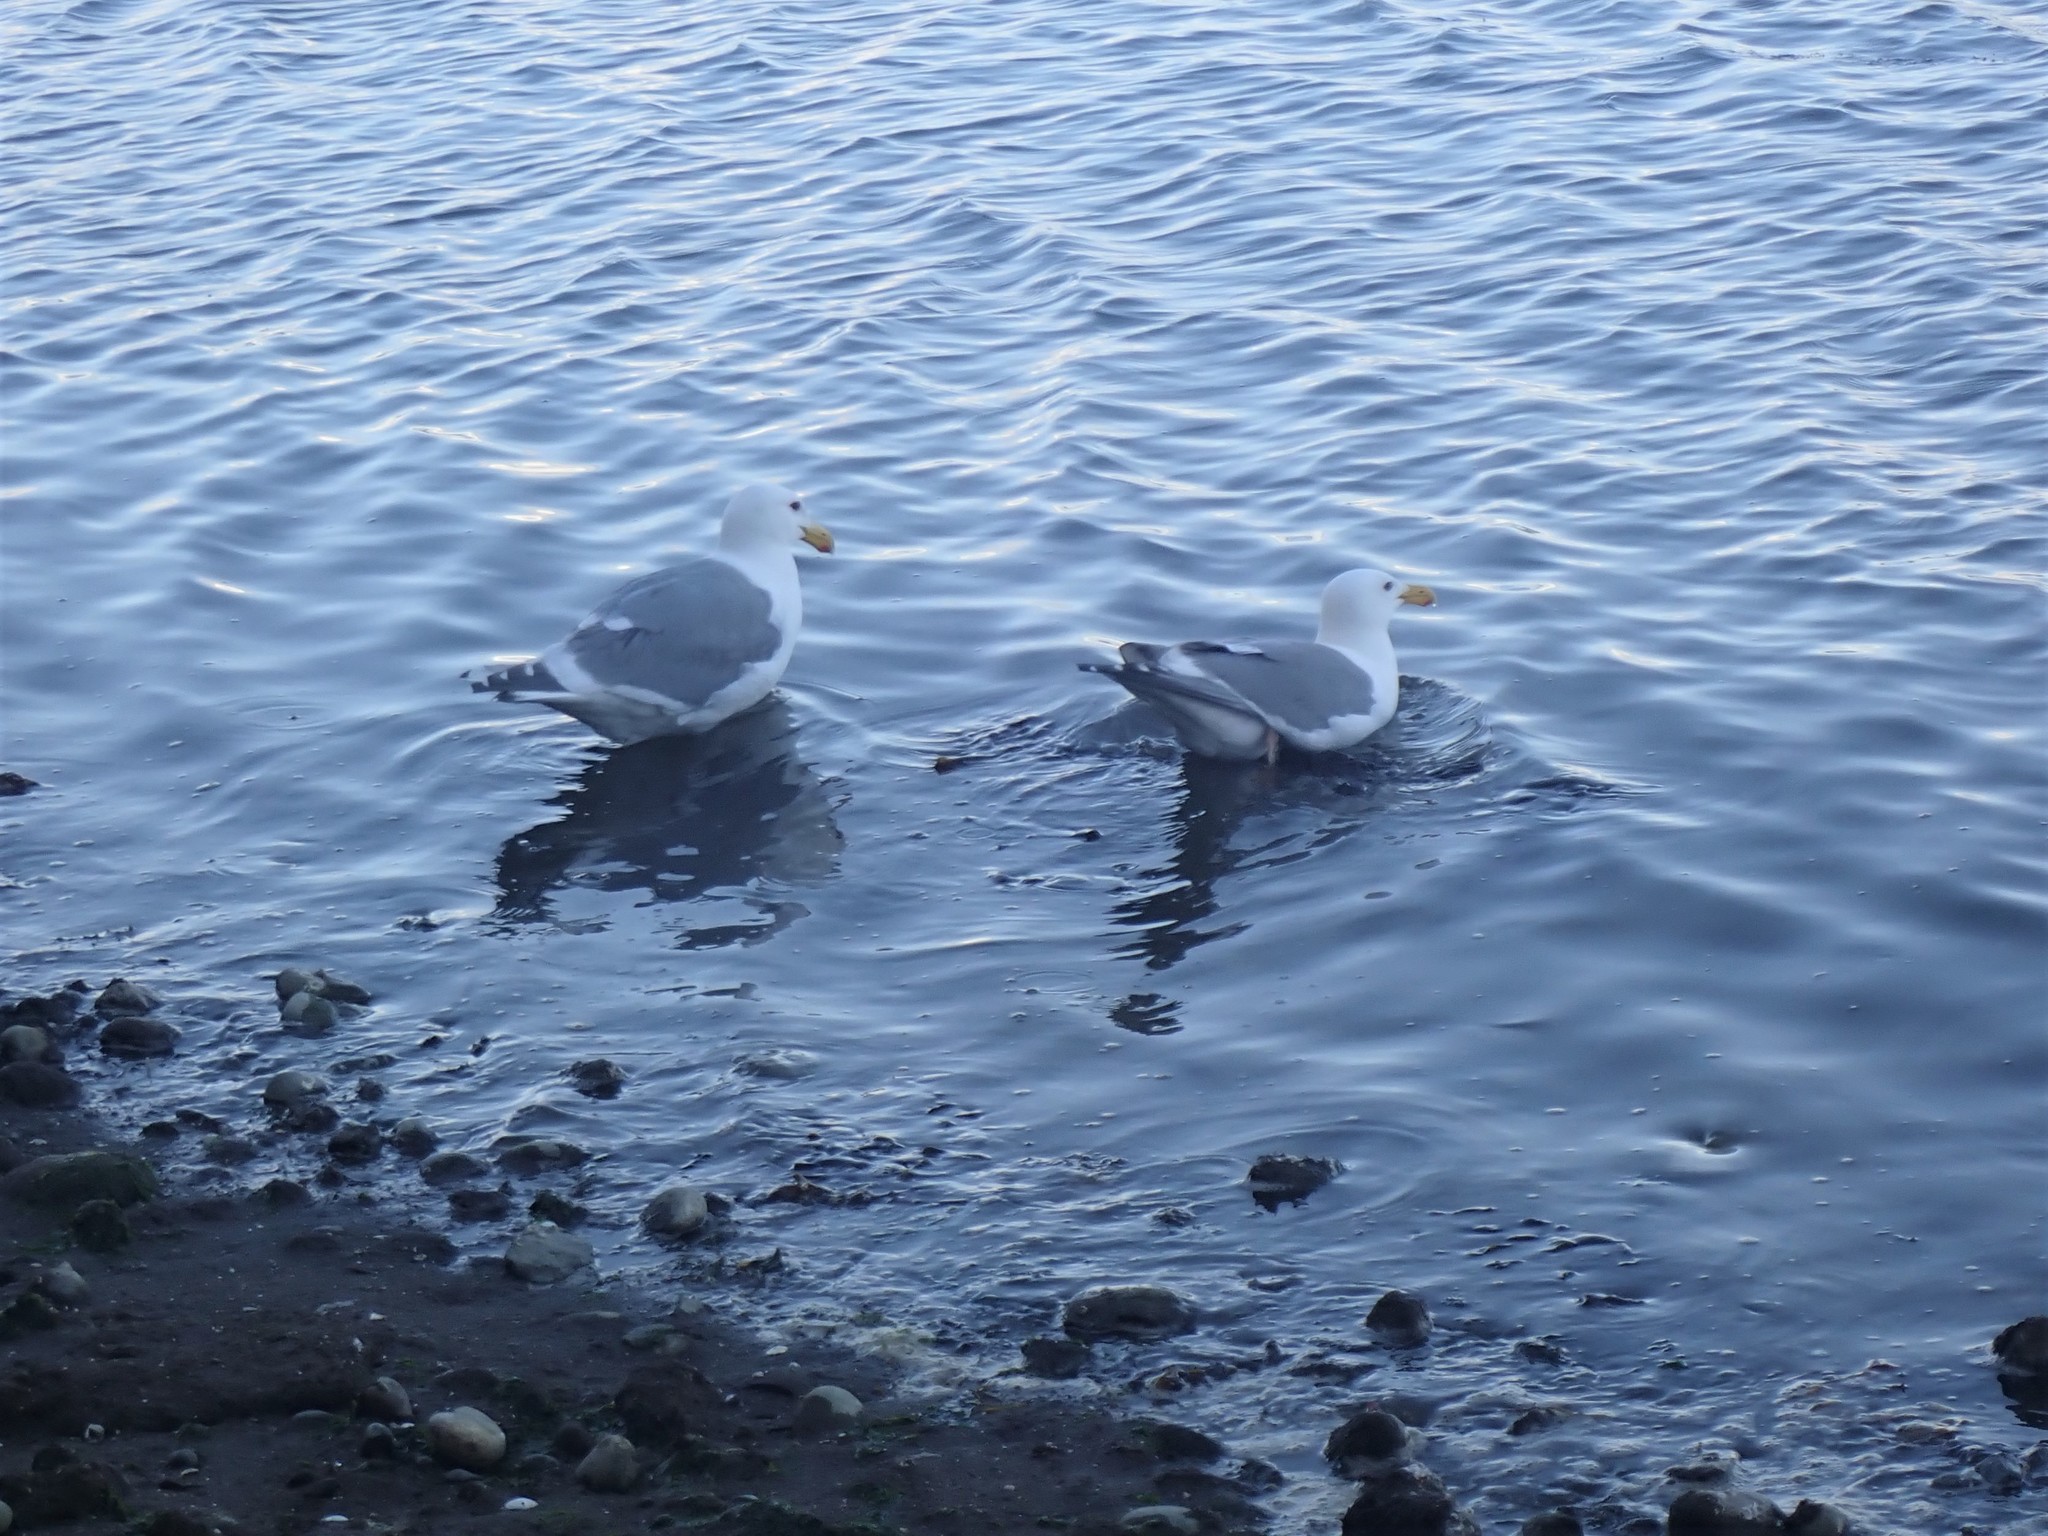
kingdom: Animalia
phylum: Chordata
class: Aves
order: Charadriiformes
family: Laridae
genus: Larus
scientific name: Larus
